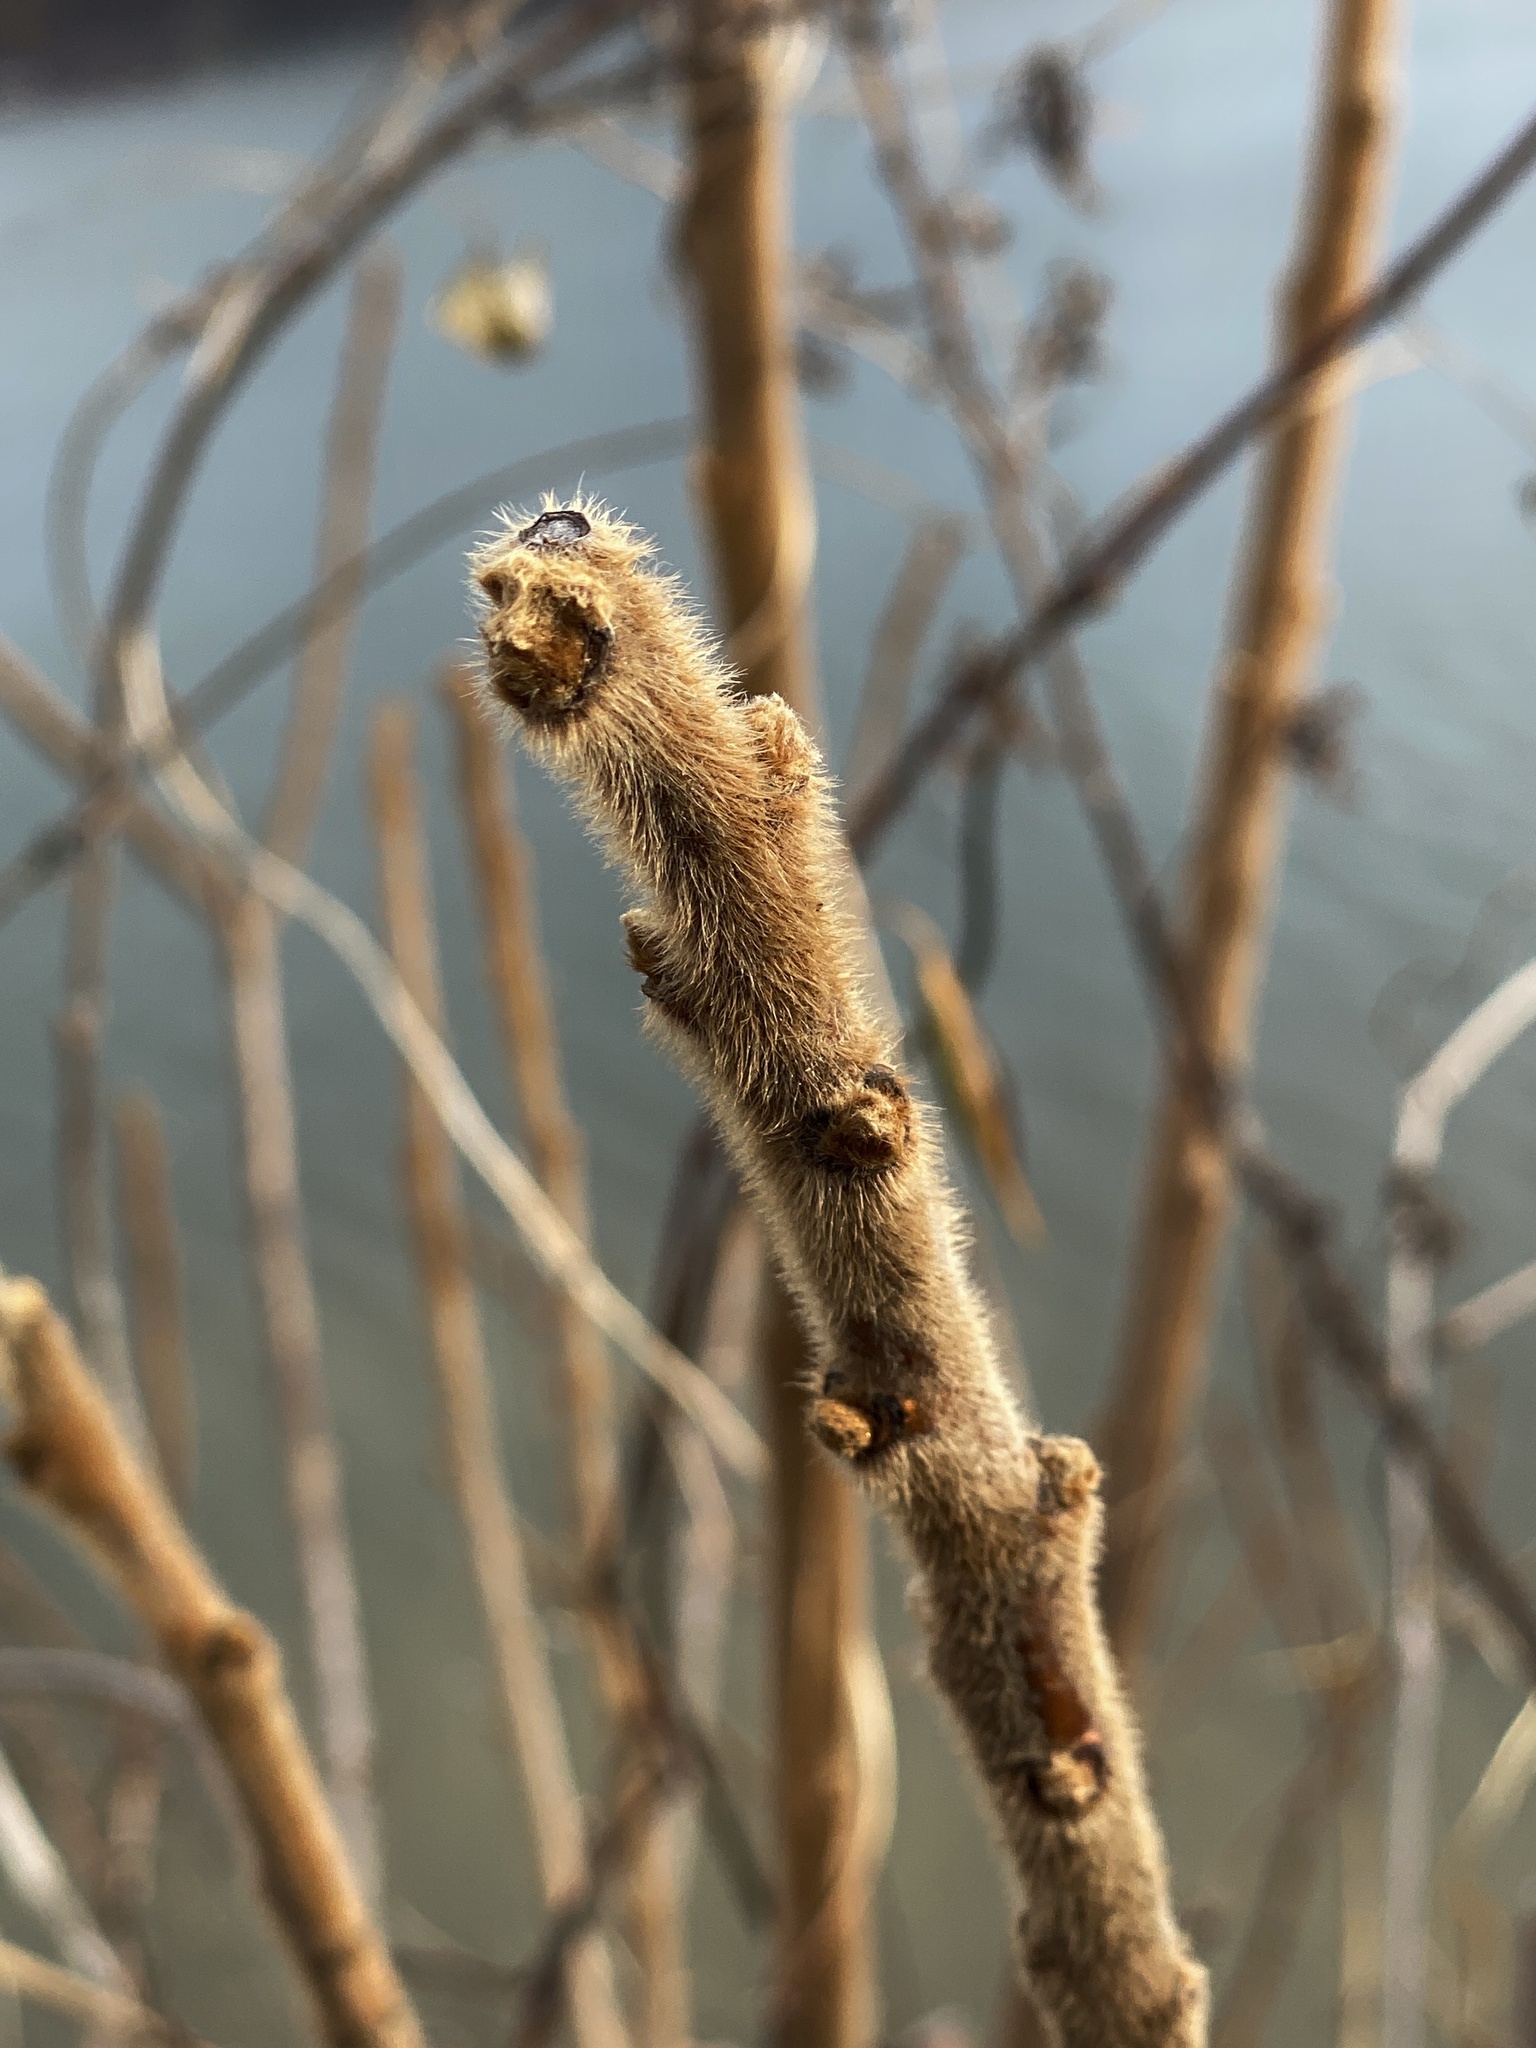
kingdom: Plantae
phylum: Tracheophyta
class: Magnoliopsida
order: Sapindales
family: Anacardiaceae
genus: Rhus
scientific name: Rhus typhina
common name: Staghorn sumac
